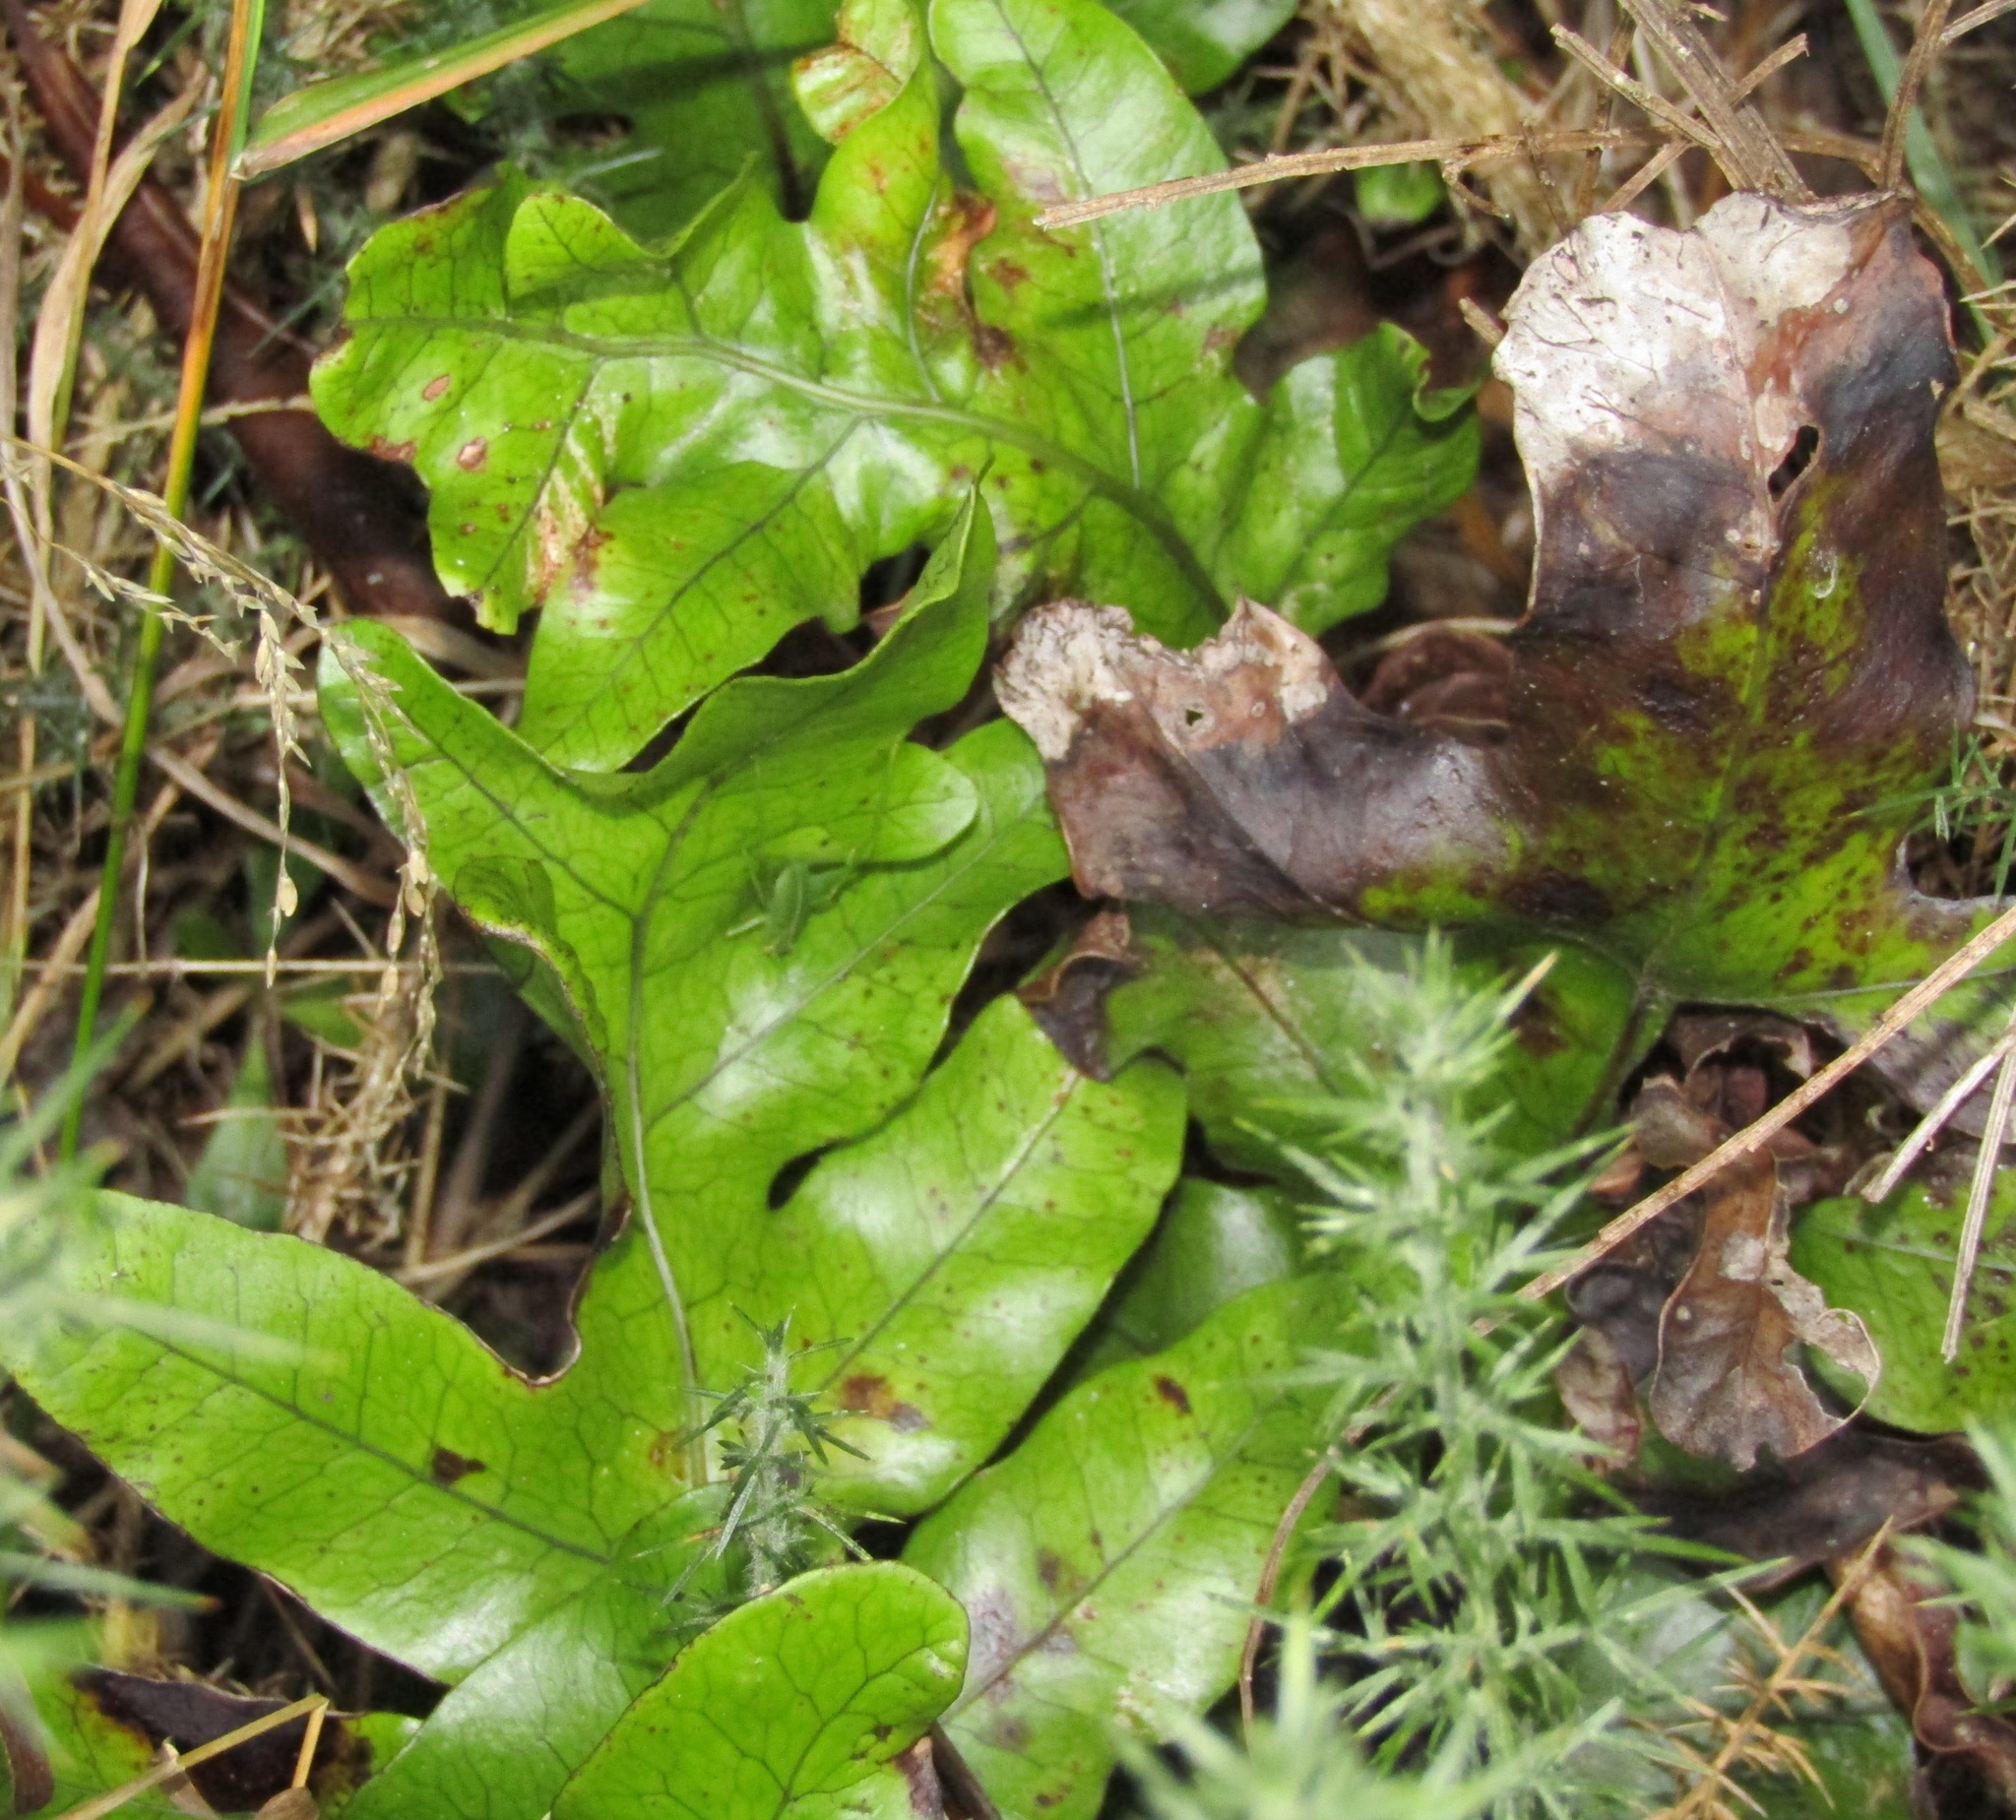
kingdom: Plantae
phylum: Tracheophyta
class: Polypodiopsida
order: Polypodiales
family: Polypodiaceae
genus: Lecanopteris
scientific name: Lecanopteris pustulata
